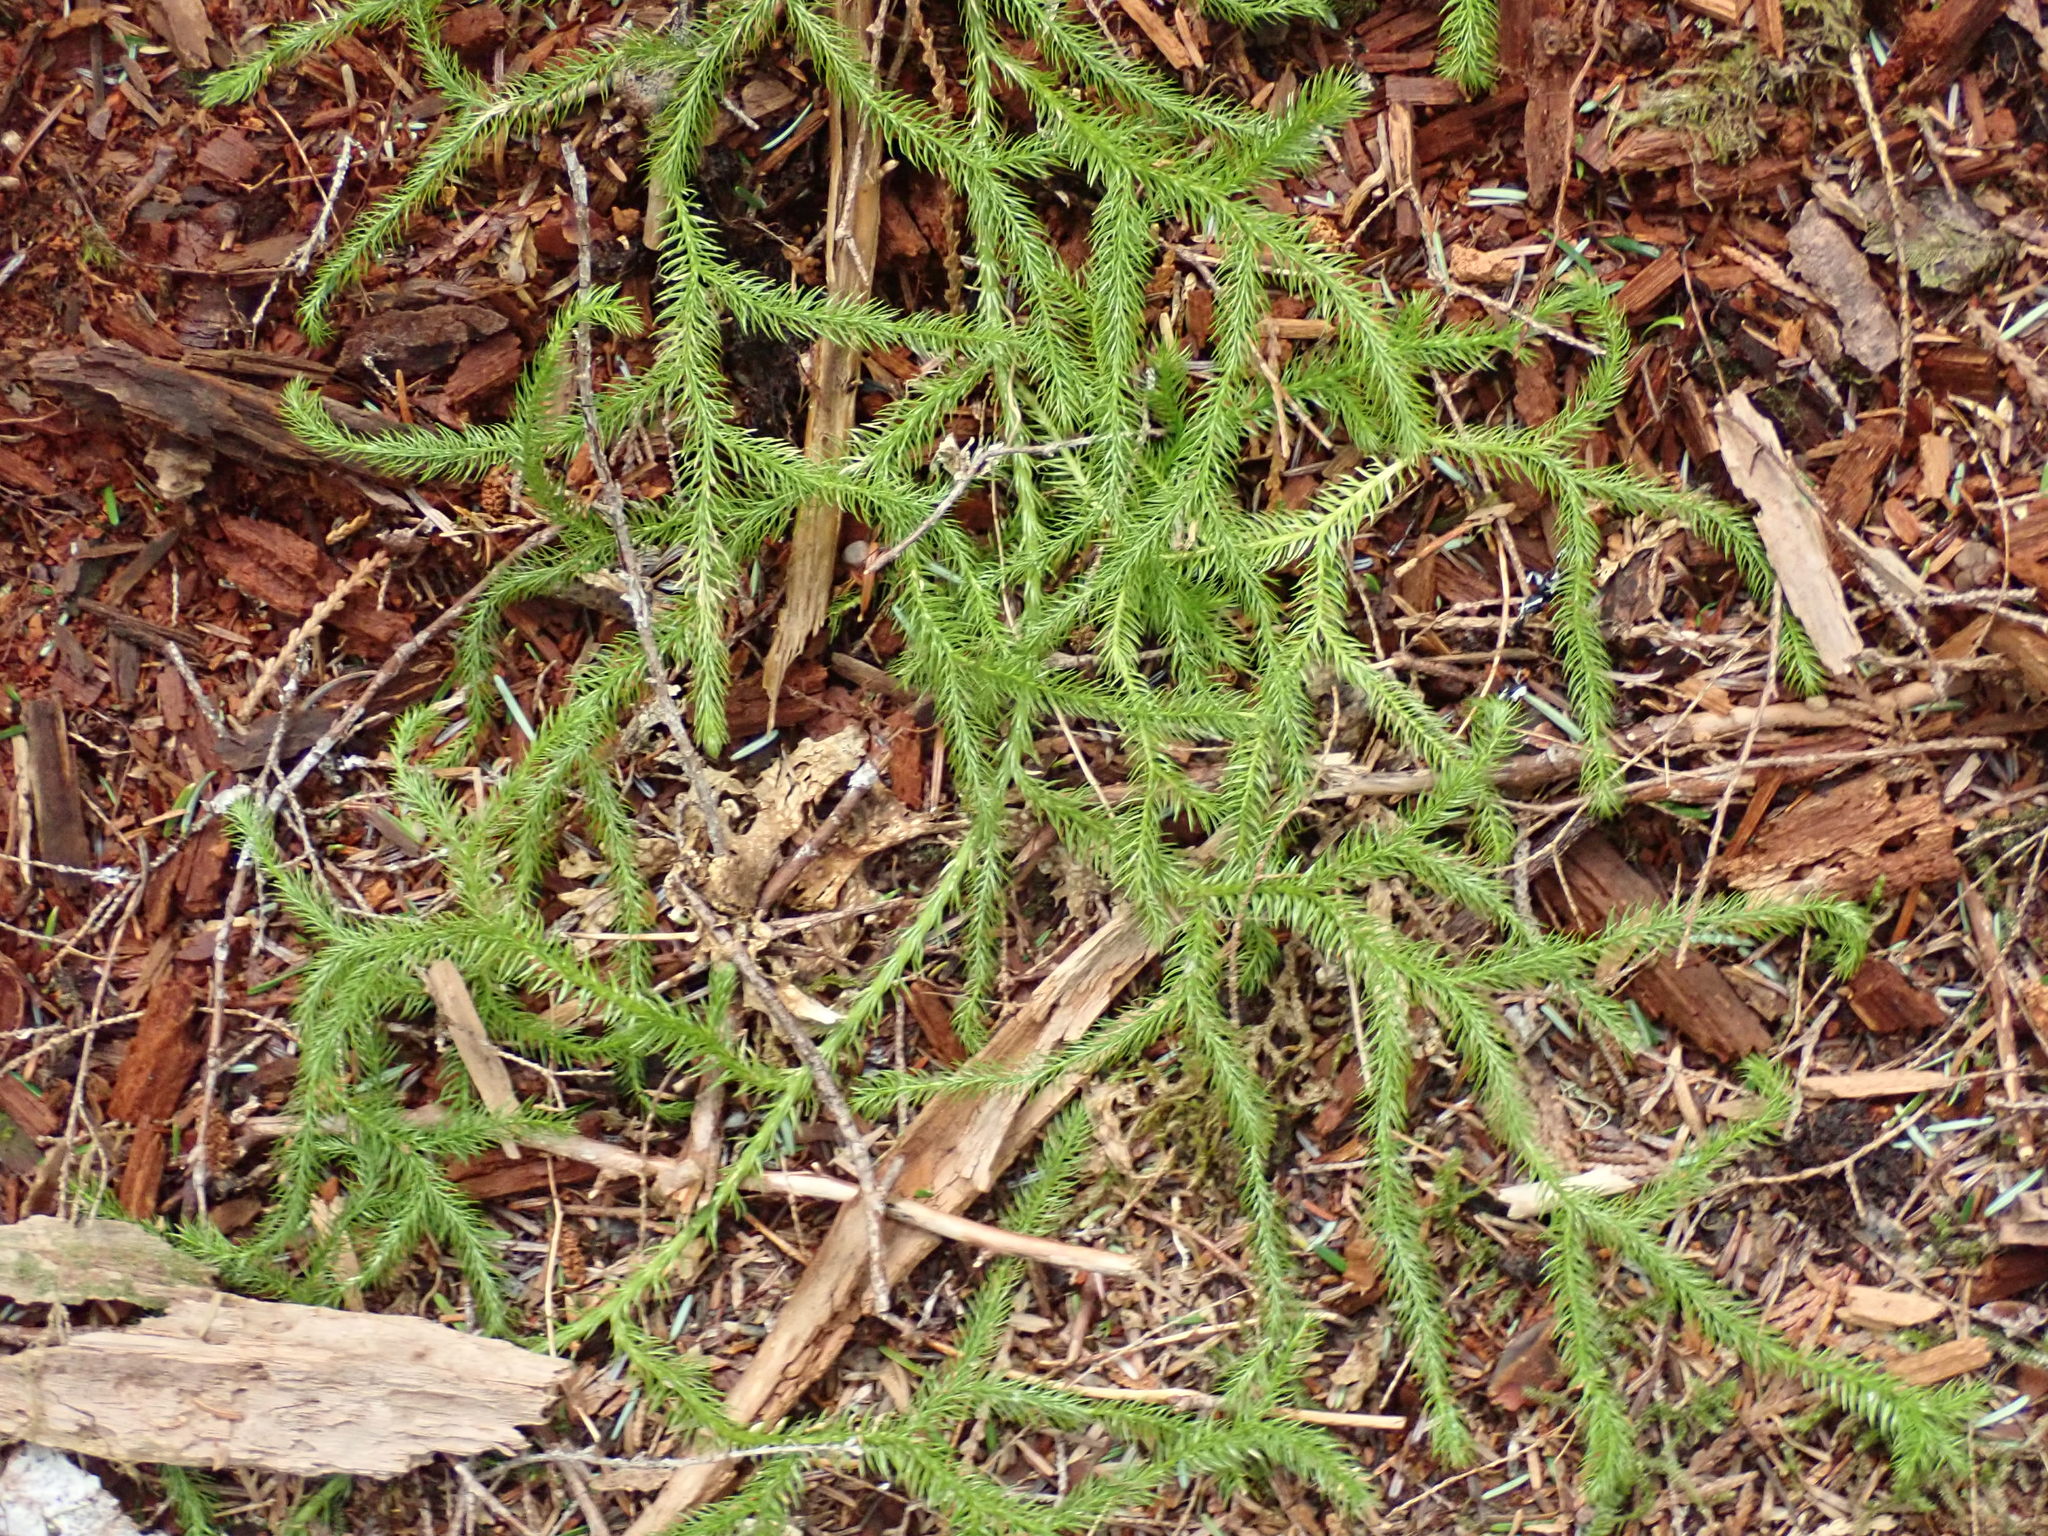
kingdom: Plantae
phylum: Tracheophyta
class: Lycopodiopsida
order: Lycopodiales
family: Lycopodiaceae
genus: Lycopodium
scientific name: Lycopodium clavatum
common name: Stag's-horn clubmoss
